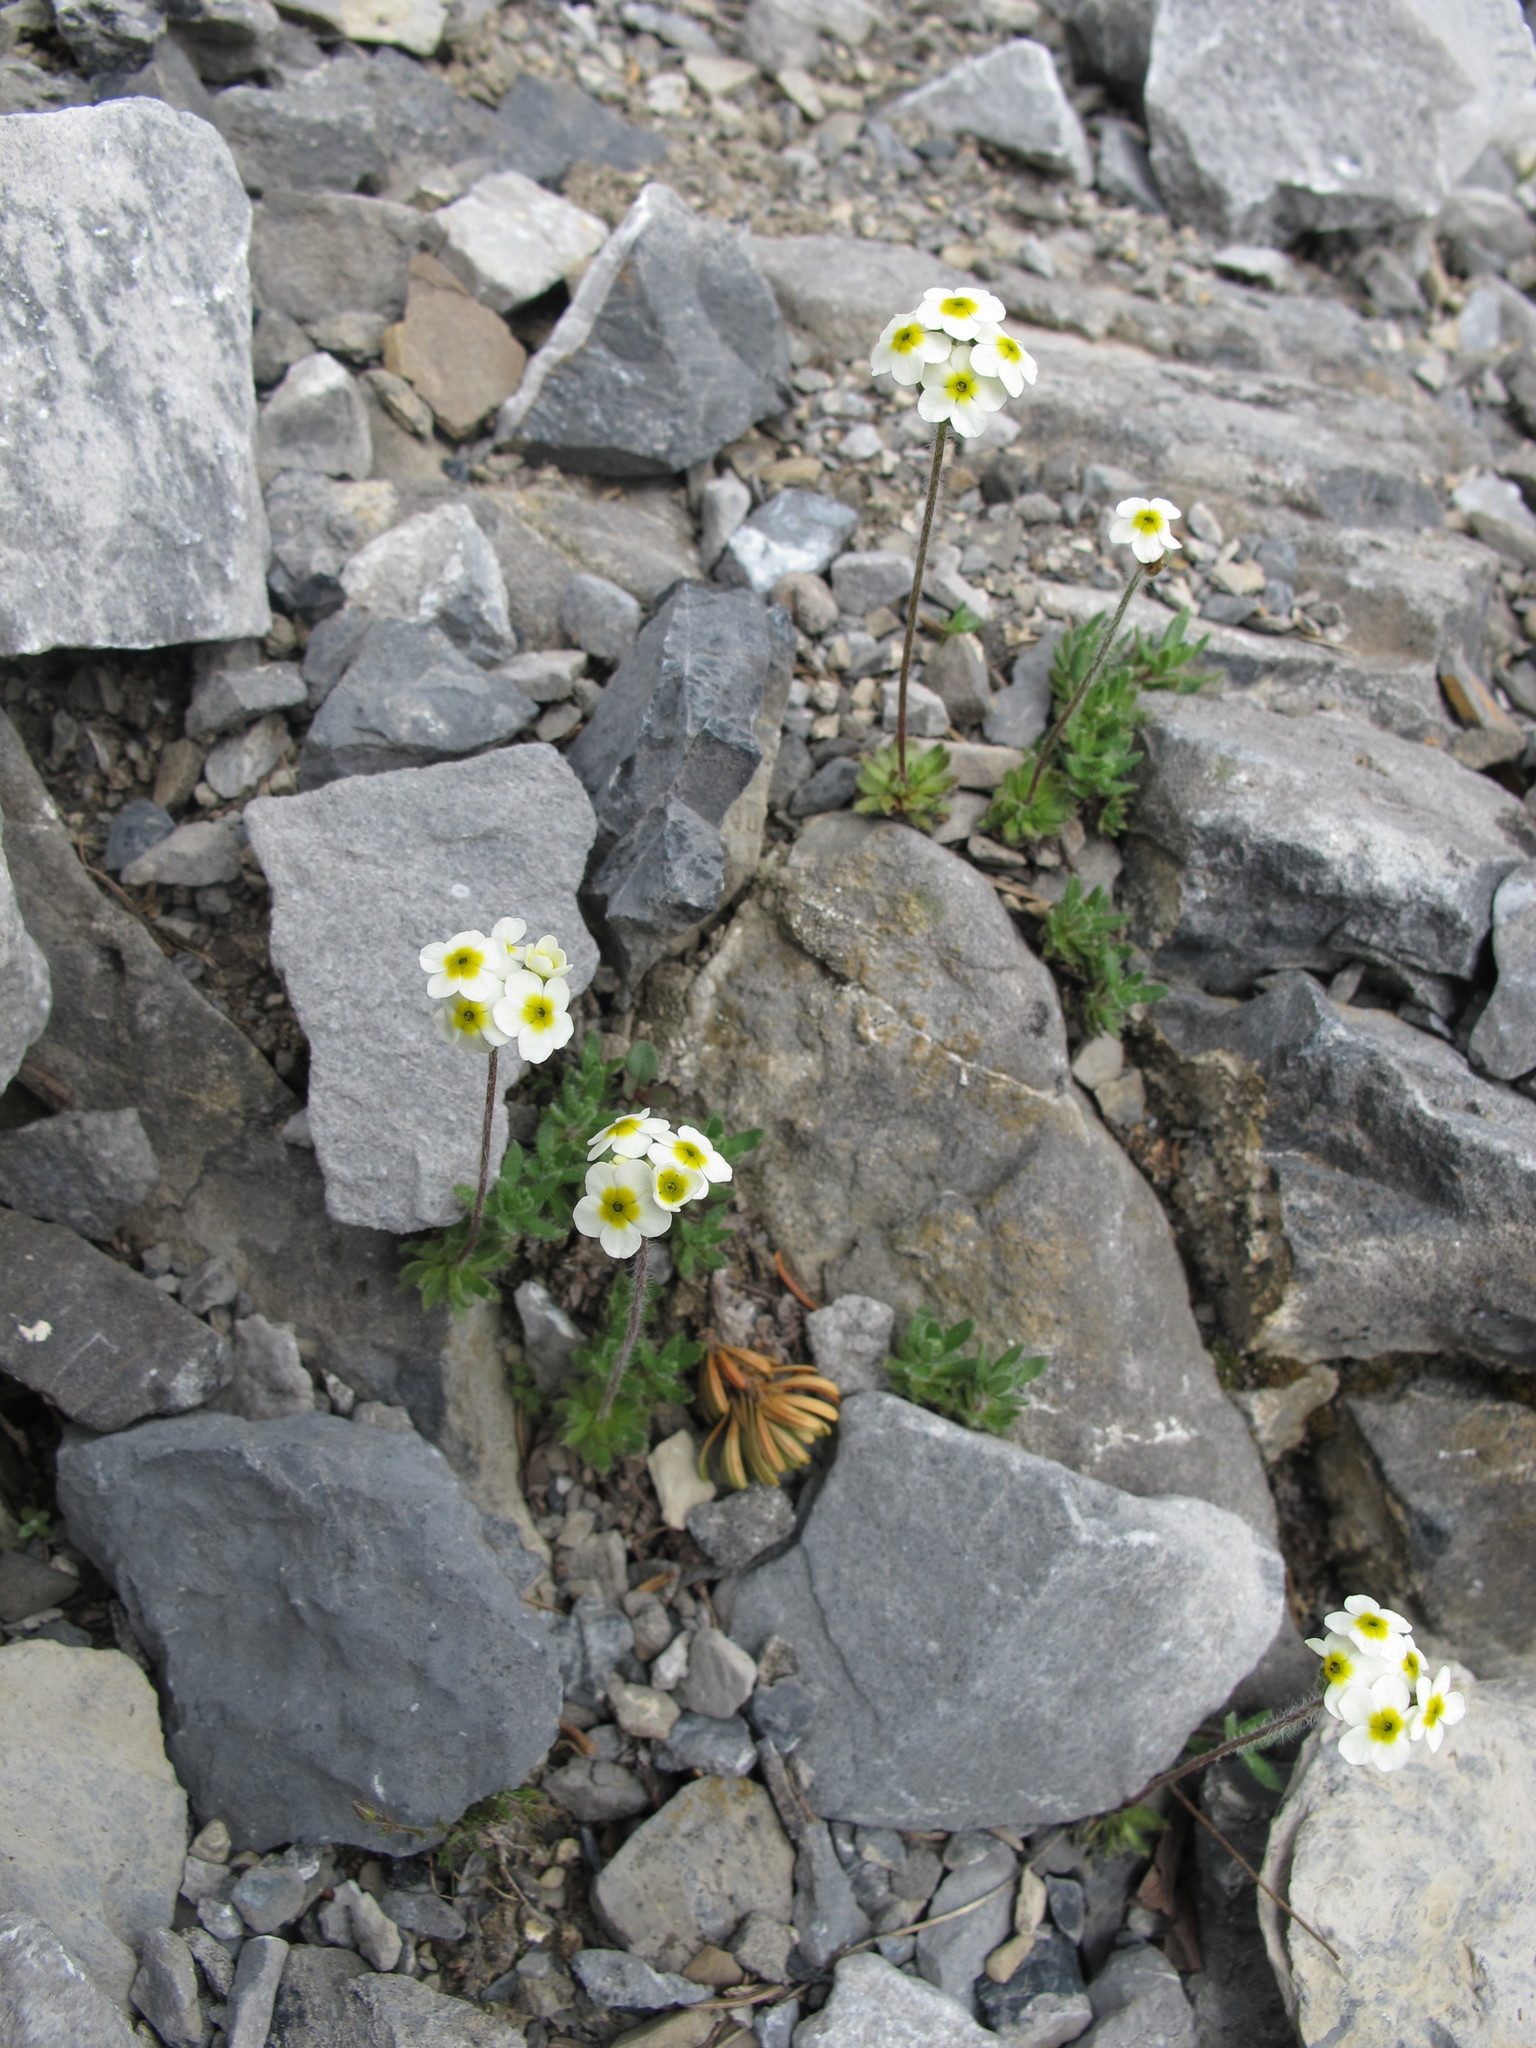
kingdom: Plantae
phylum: Tracheophyta
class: Magnoliopsida
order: Ericales
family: Primulaceae
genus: Androsace
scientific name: Androsace chamaejasme
